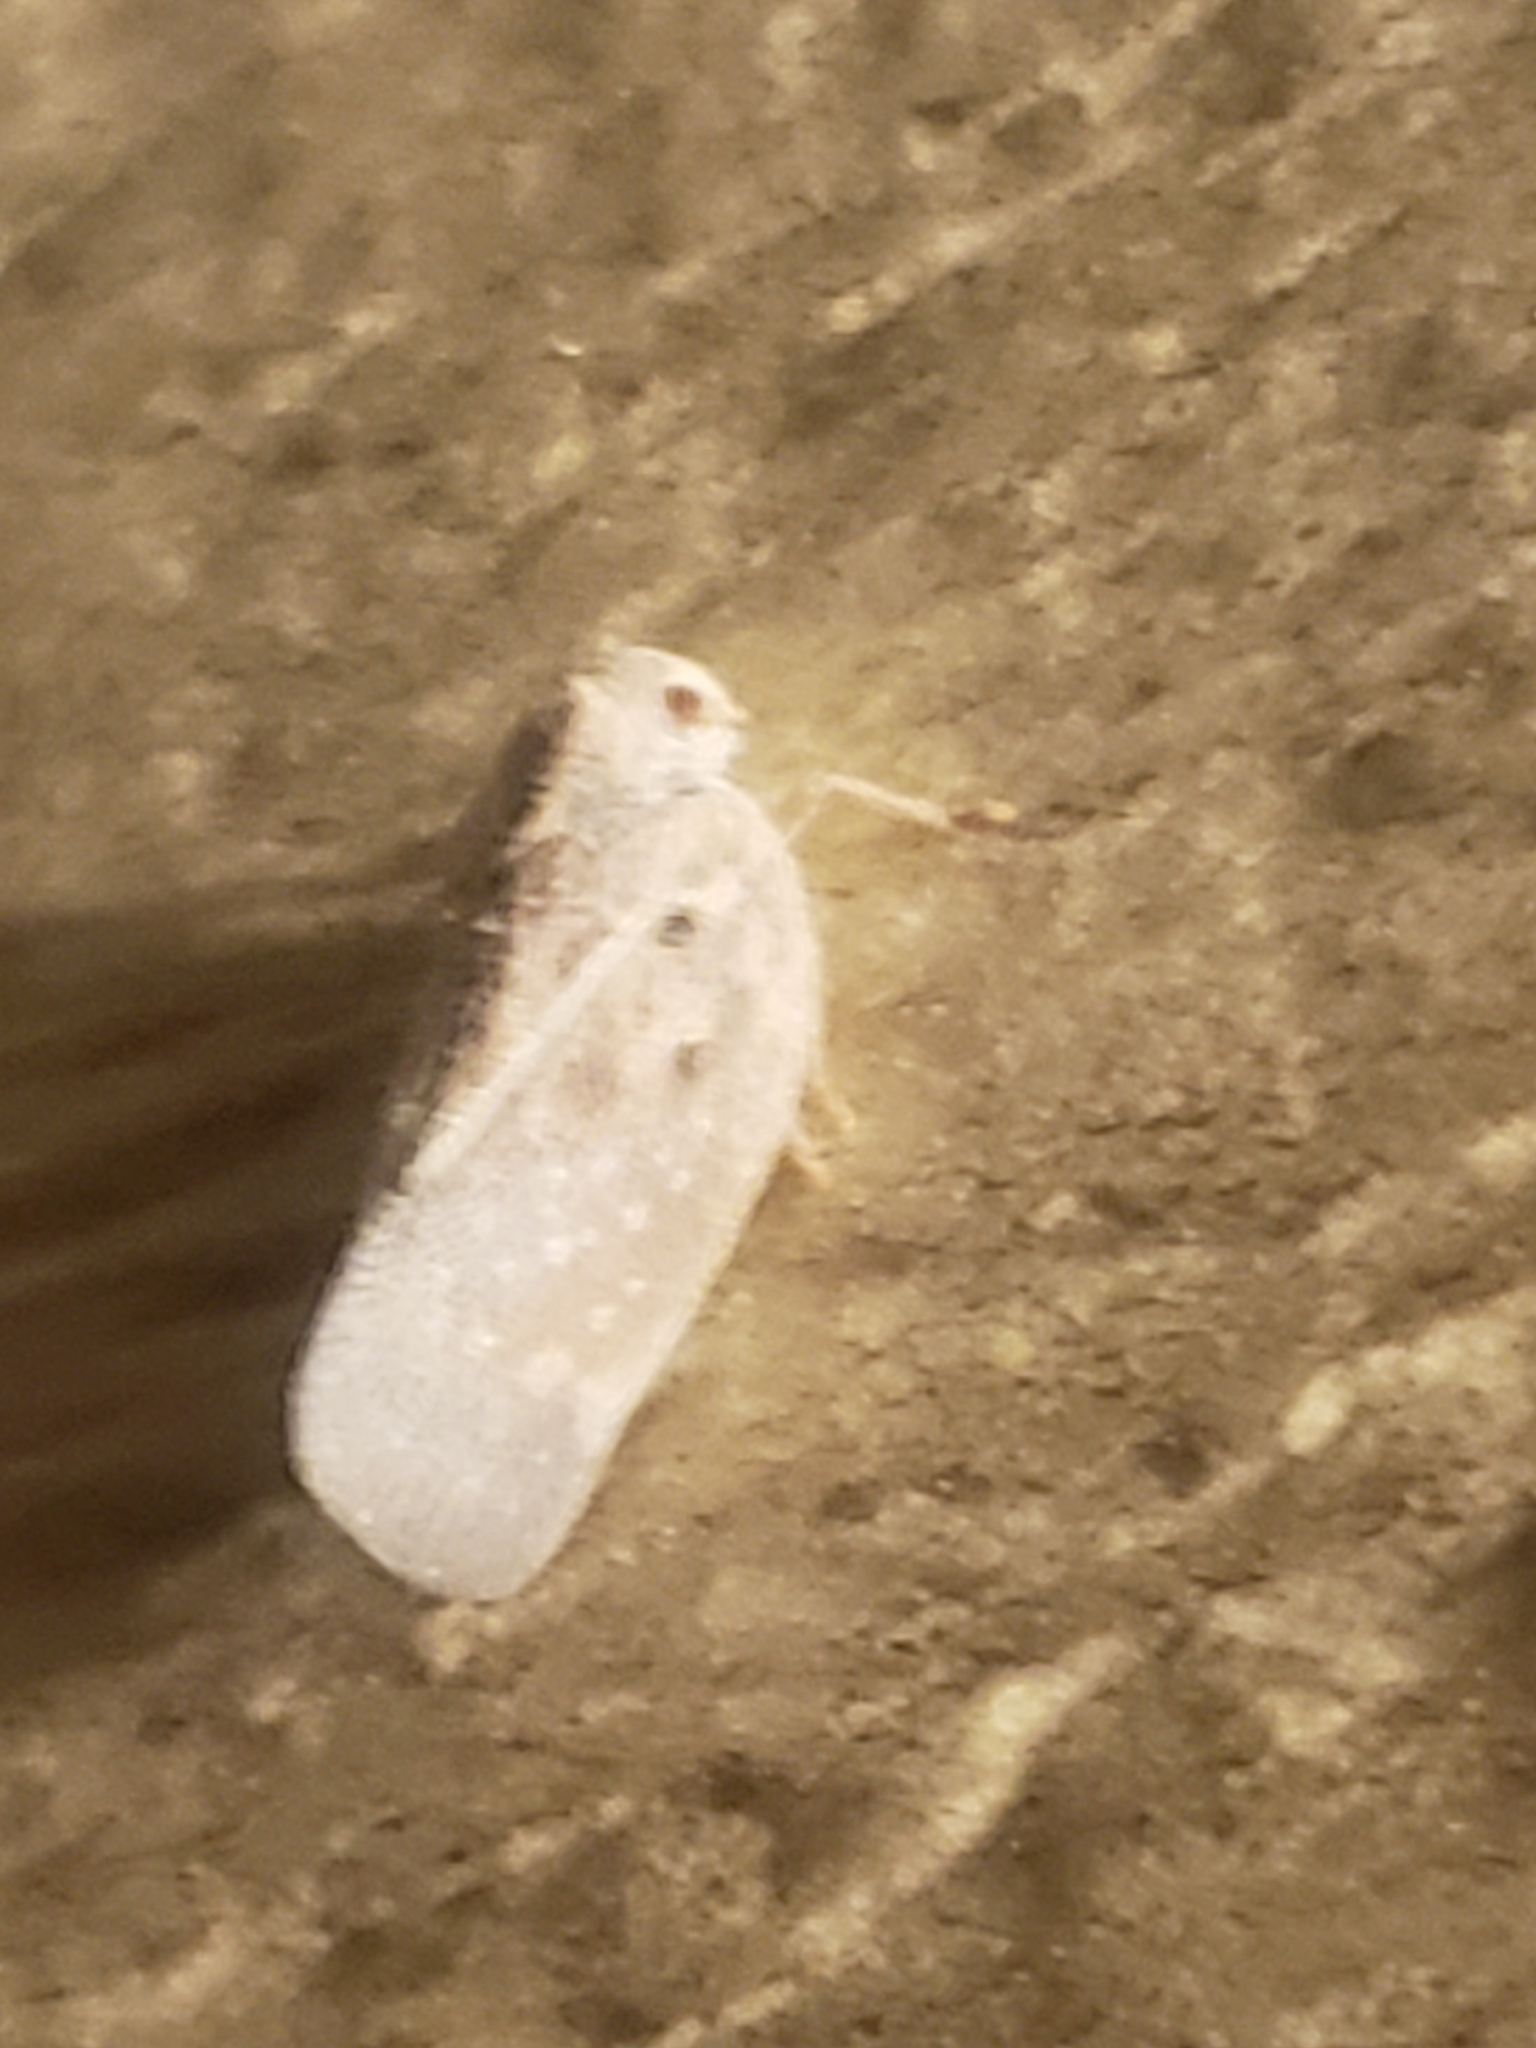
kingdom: Animalia
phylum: Arthropoda
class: Insecta
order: Hemiptera
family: Flatidae
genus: Metcalfa
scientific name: Metcalfa pruinosa
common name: Citrus flatid planthopper
